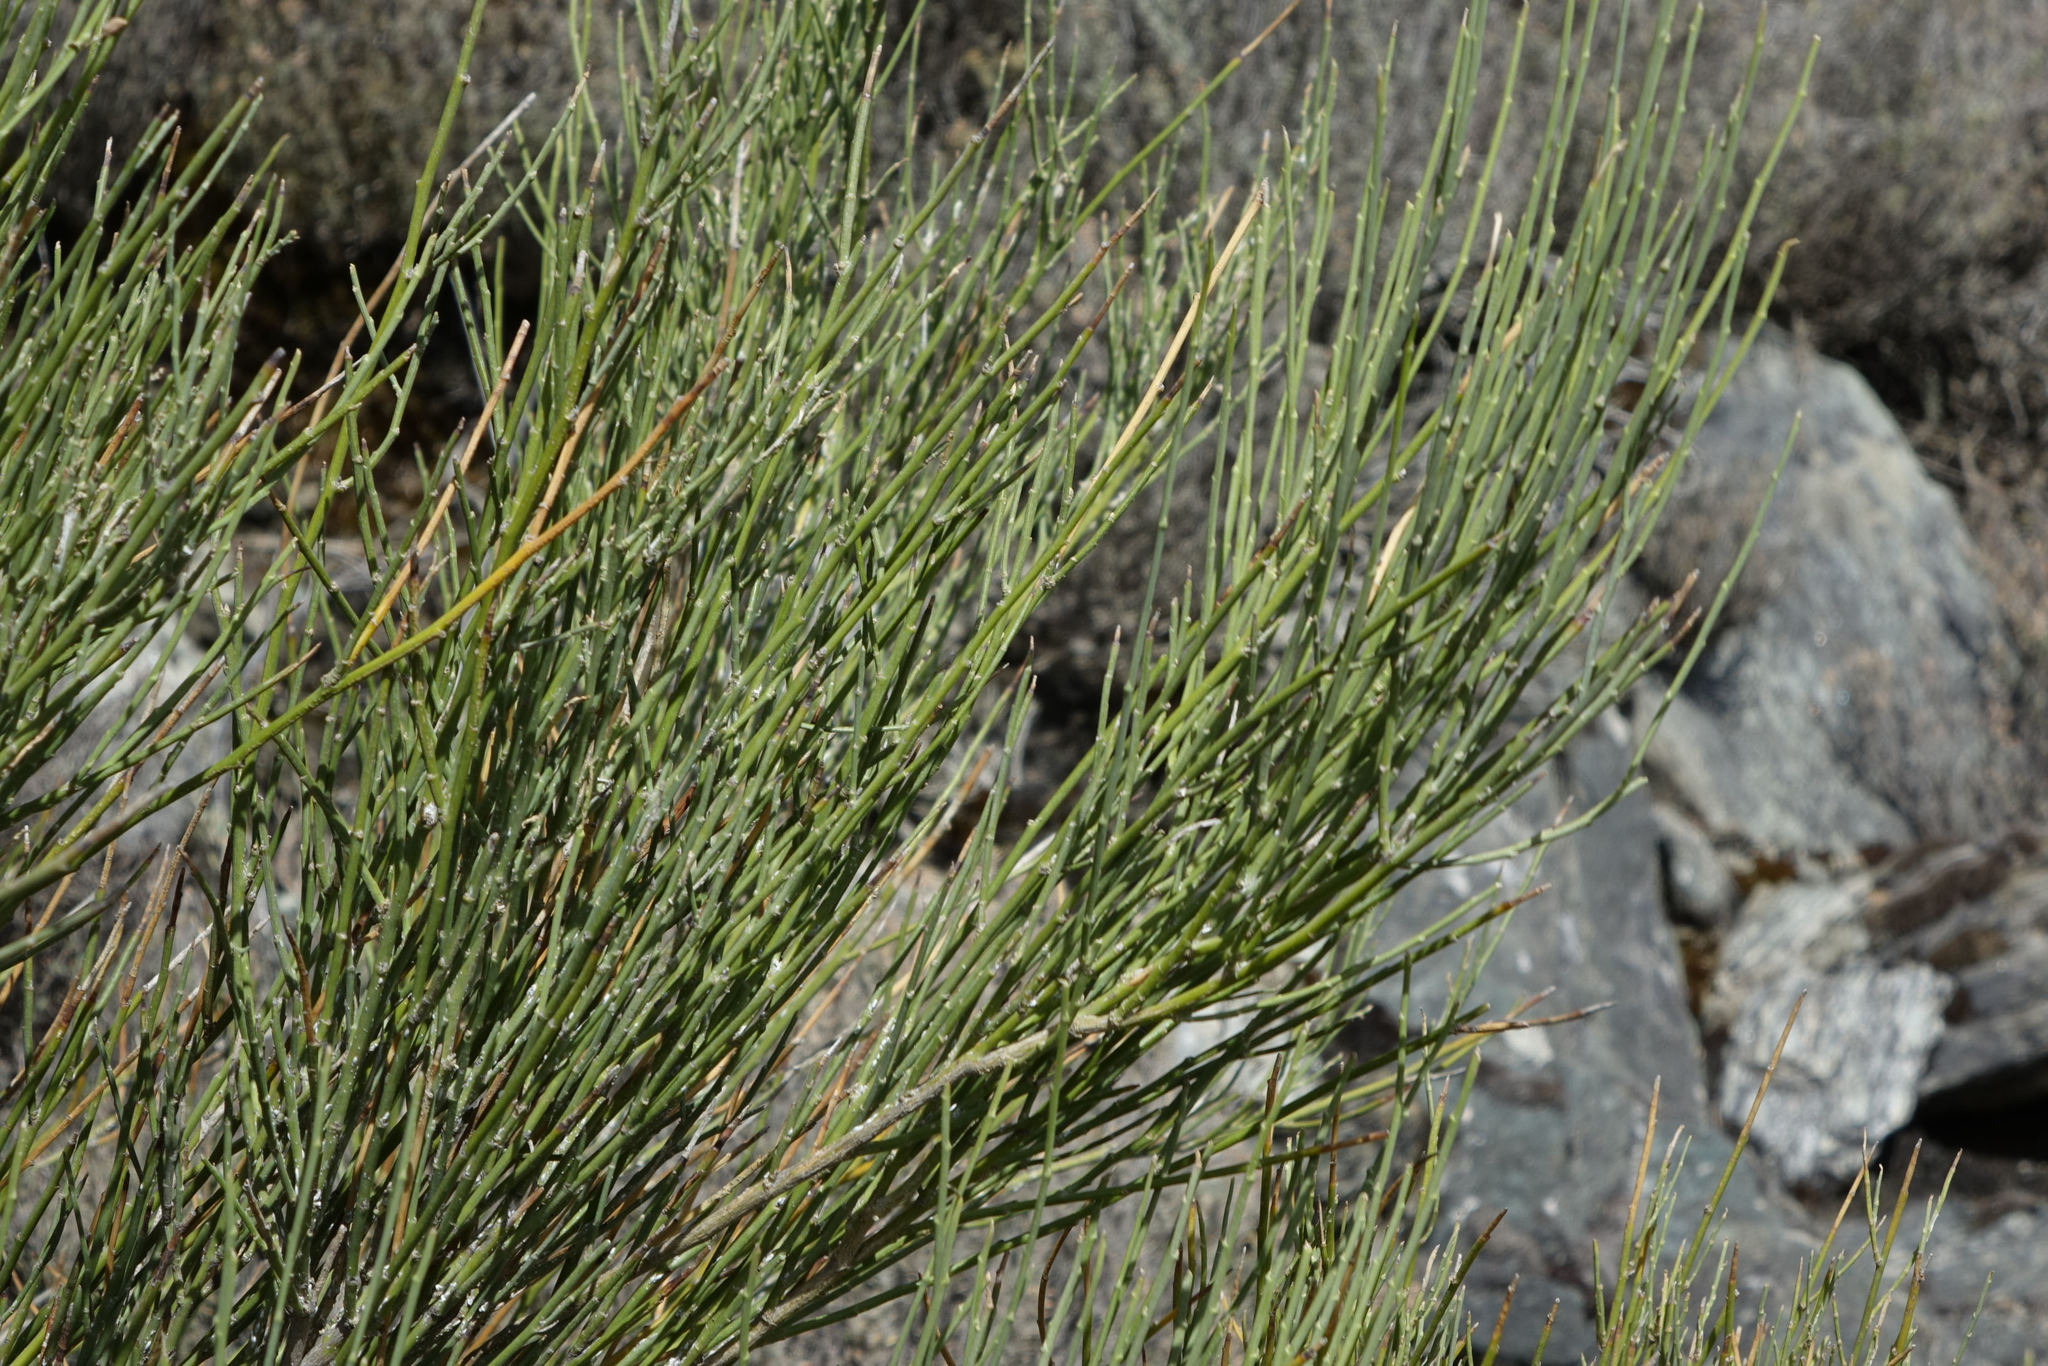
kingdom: Plantae
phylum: Tracheophyta
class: Magnoliopsida
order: Fabales
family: Fabaceae
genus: Carmichaelia
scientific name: Carmichaelia compacta
